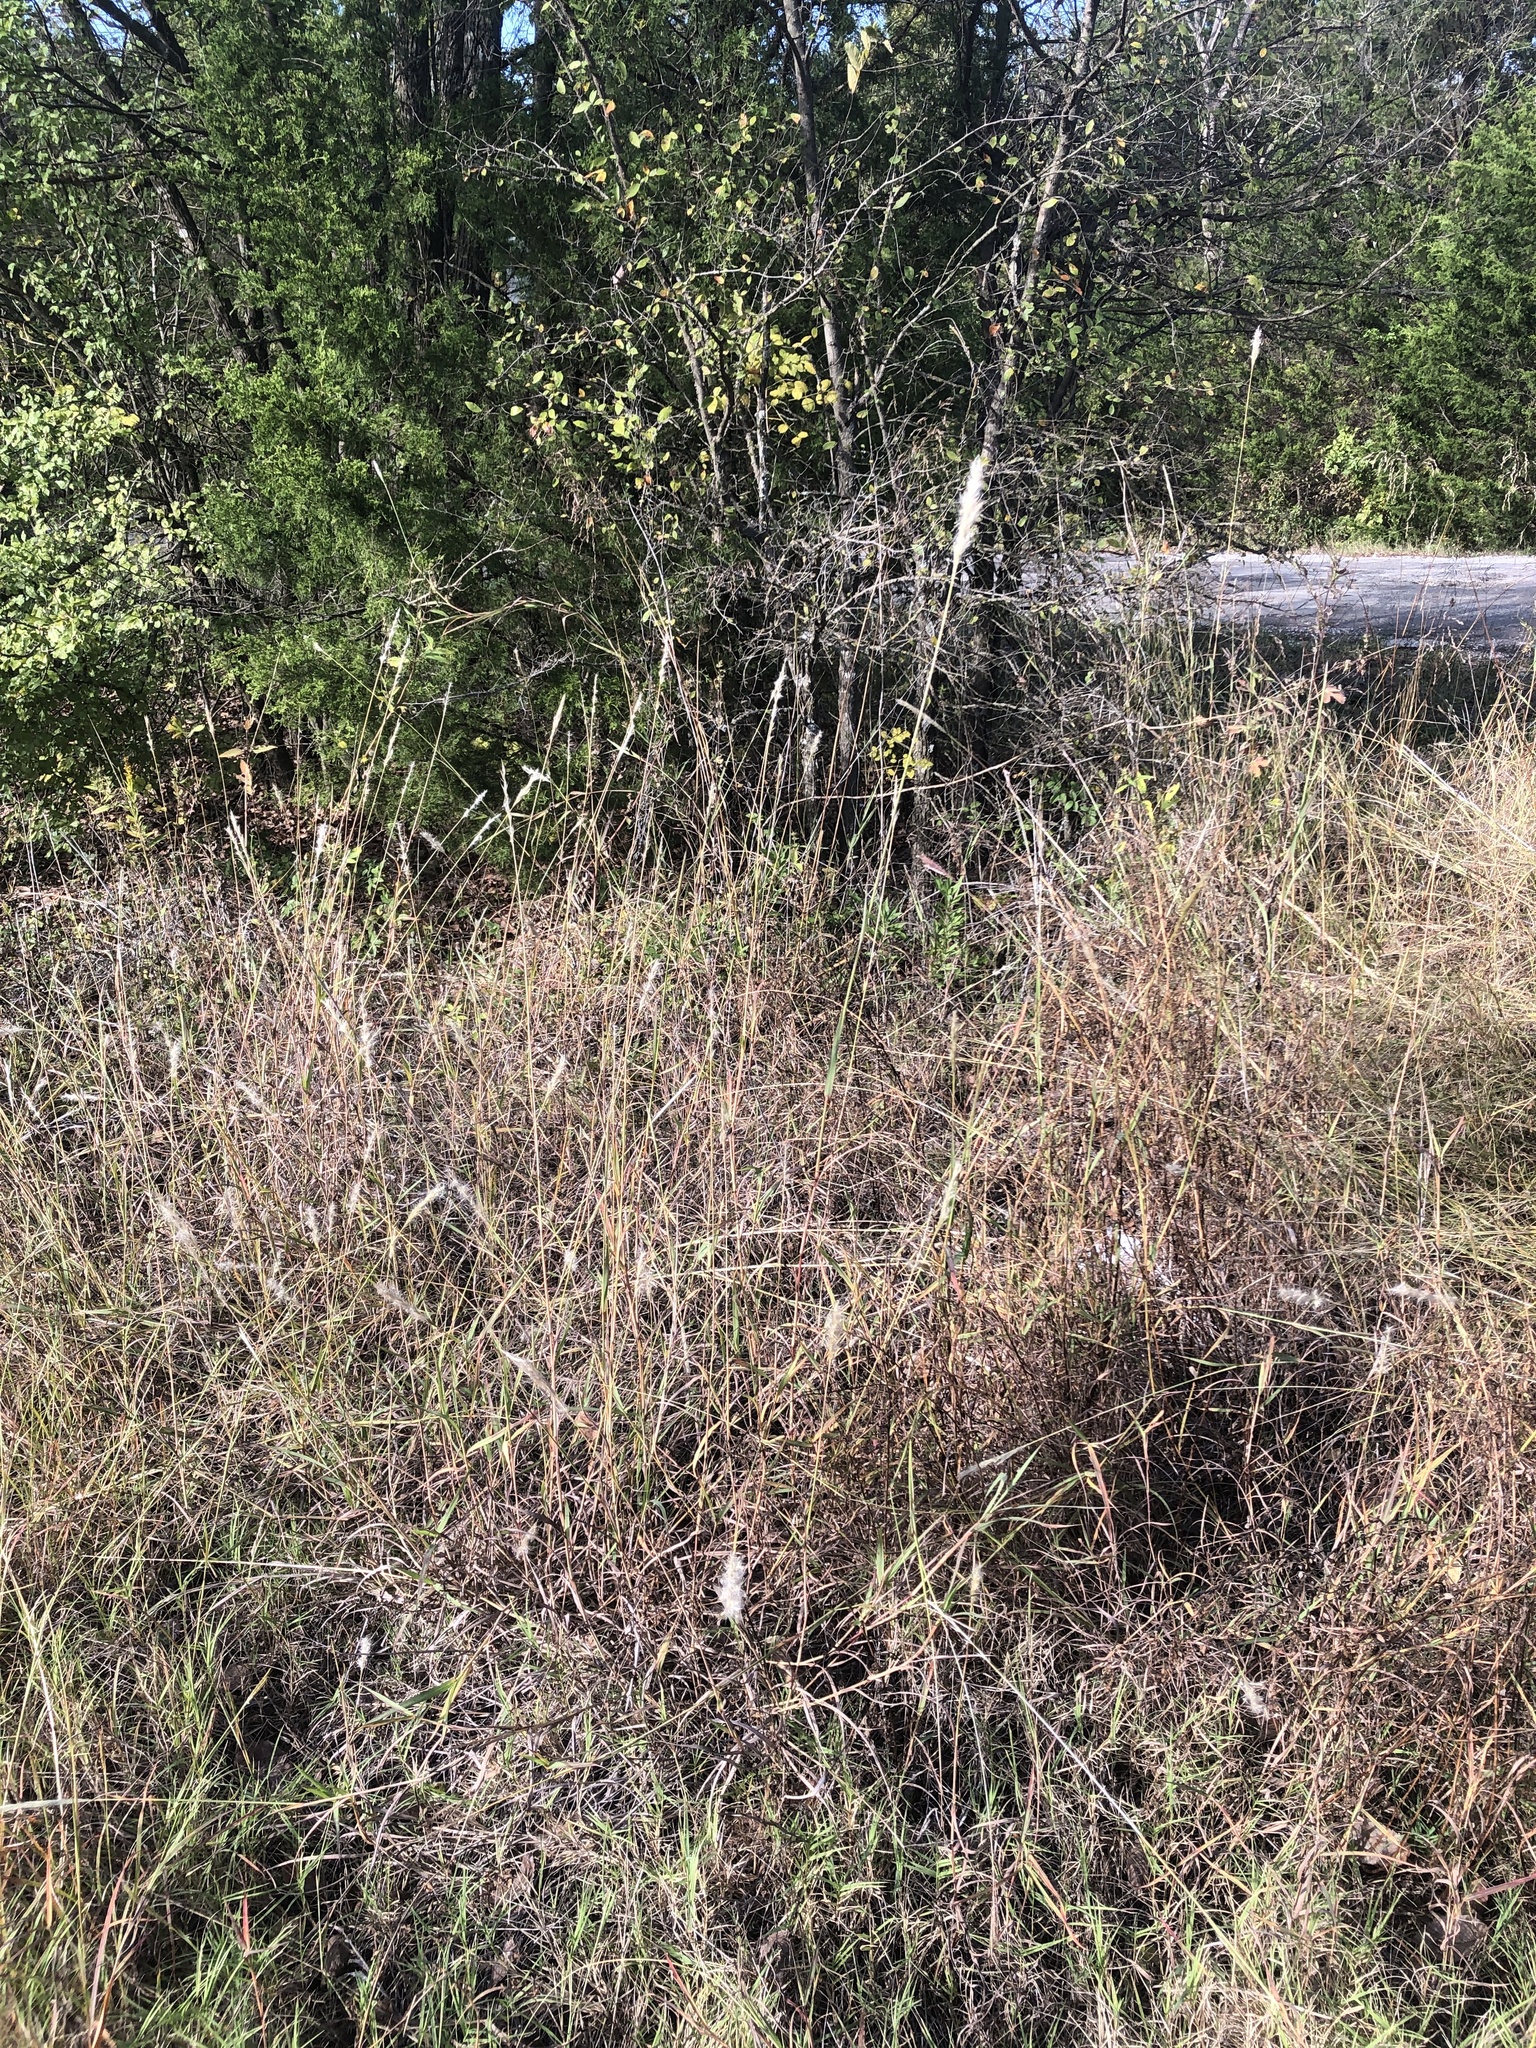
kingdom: Plantae
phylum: Tracheophyta
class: Liliopsida
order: Poales
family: Poaceae
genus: Bothriochloa
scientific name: Bothriochloa torreyana
